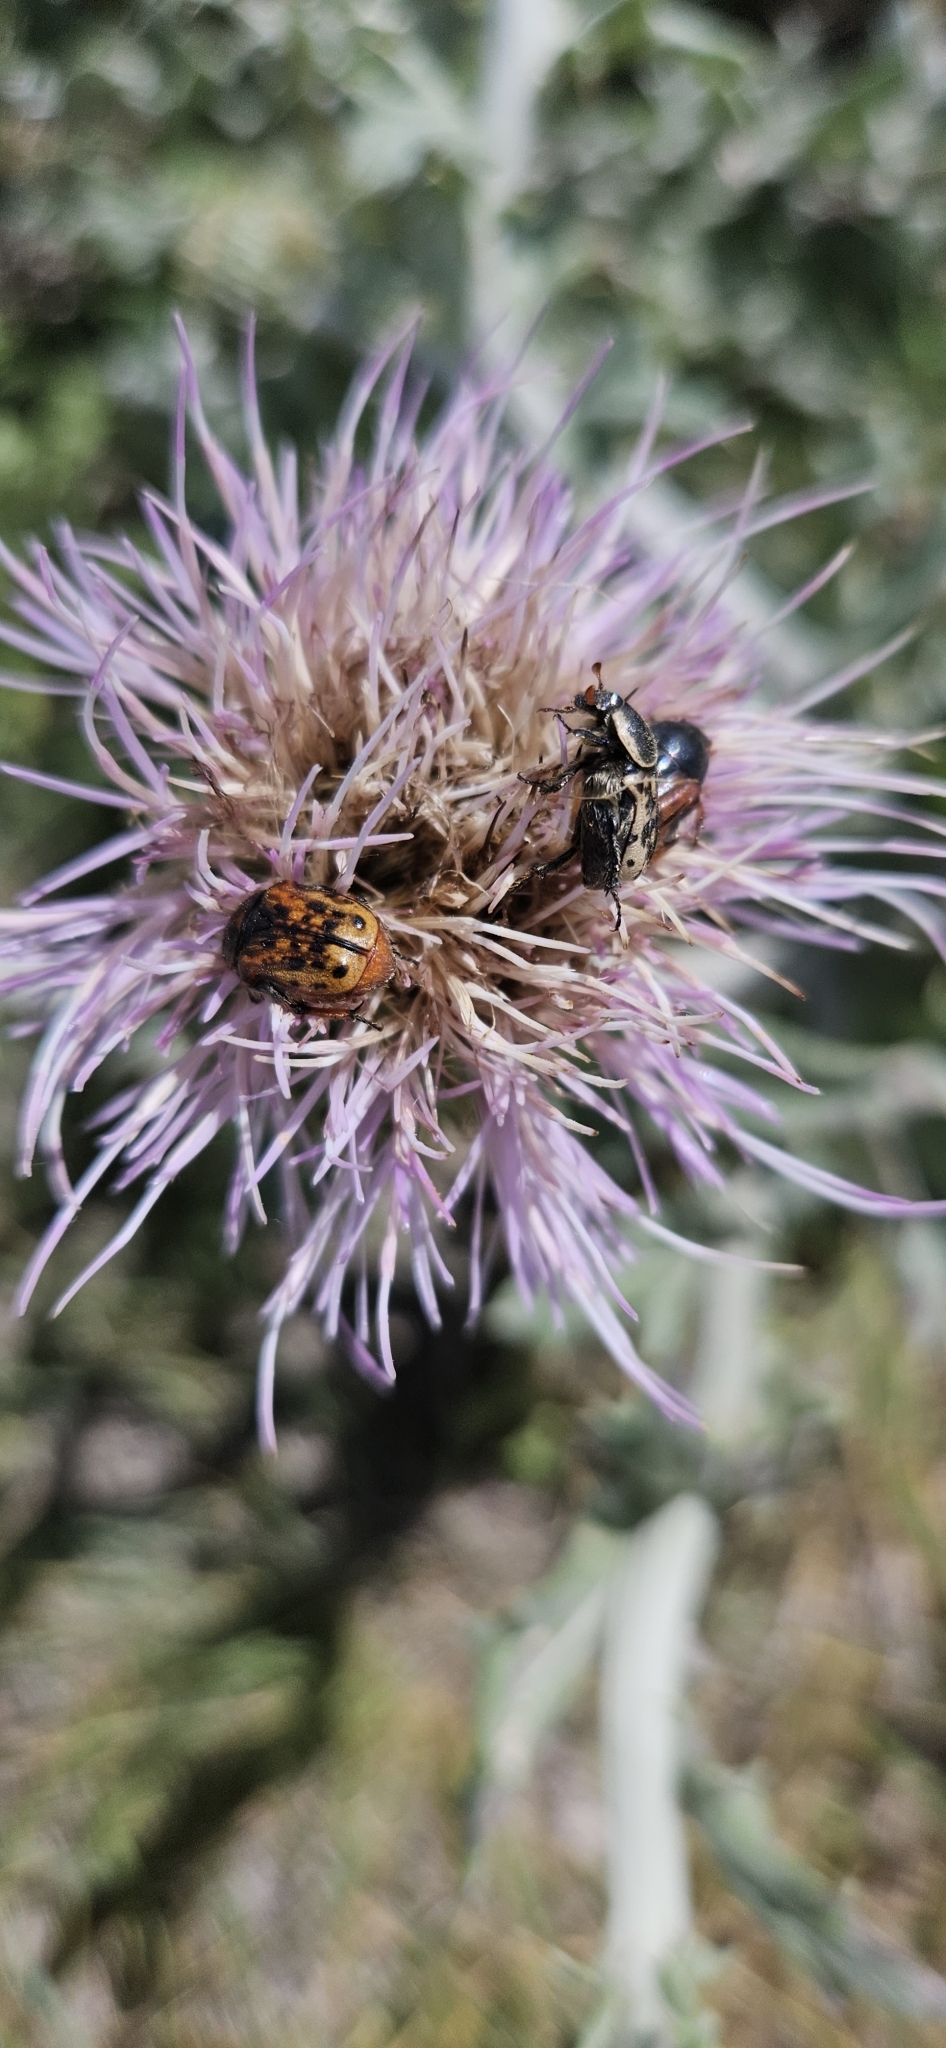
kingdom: Animalia
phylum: Arthropoda
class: Insecta
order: Coleoptera
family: Scarabaeidae
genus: Euphoria
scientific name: Euphoria kernii
